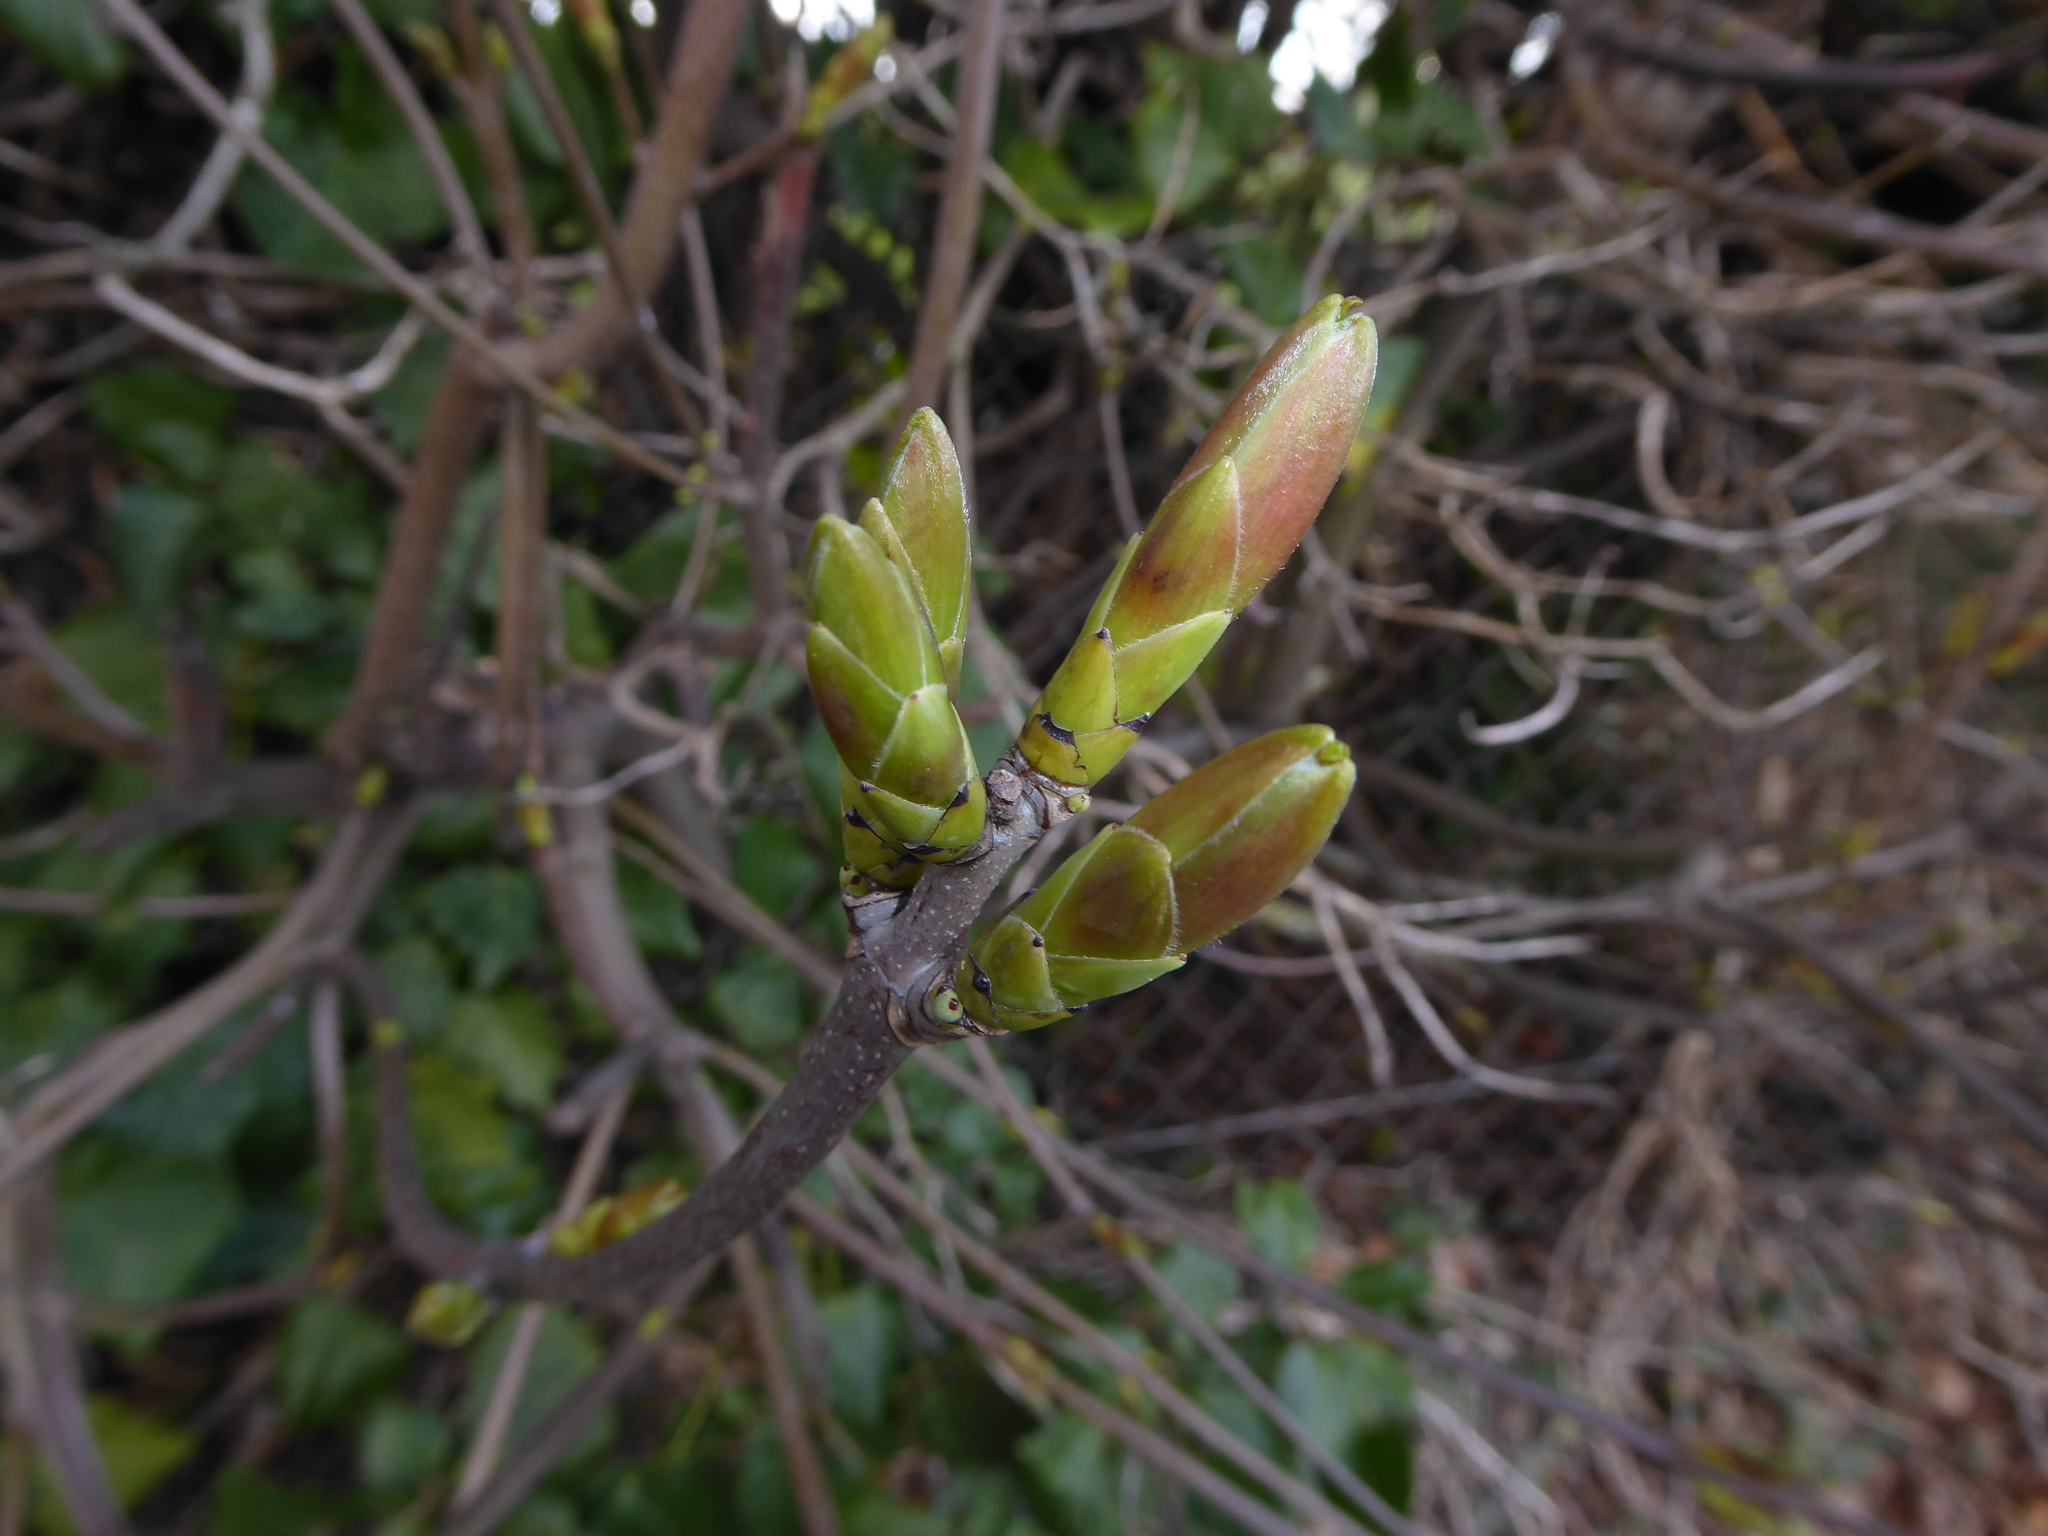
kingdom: Plantae
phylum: Tracheophyta
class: Magnoliopsida
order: Sapindales
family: Sapindaceae
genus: Acer
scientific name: Acer pseudoplatanus
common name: Sycamore
